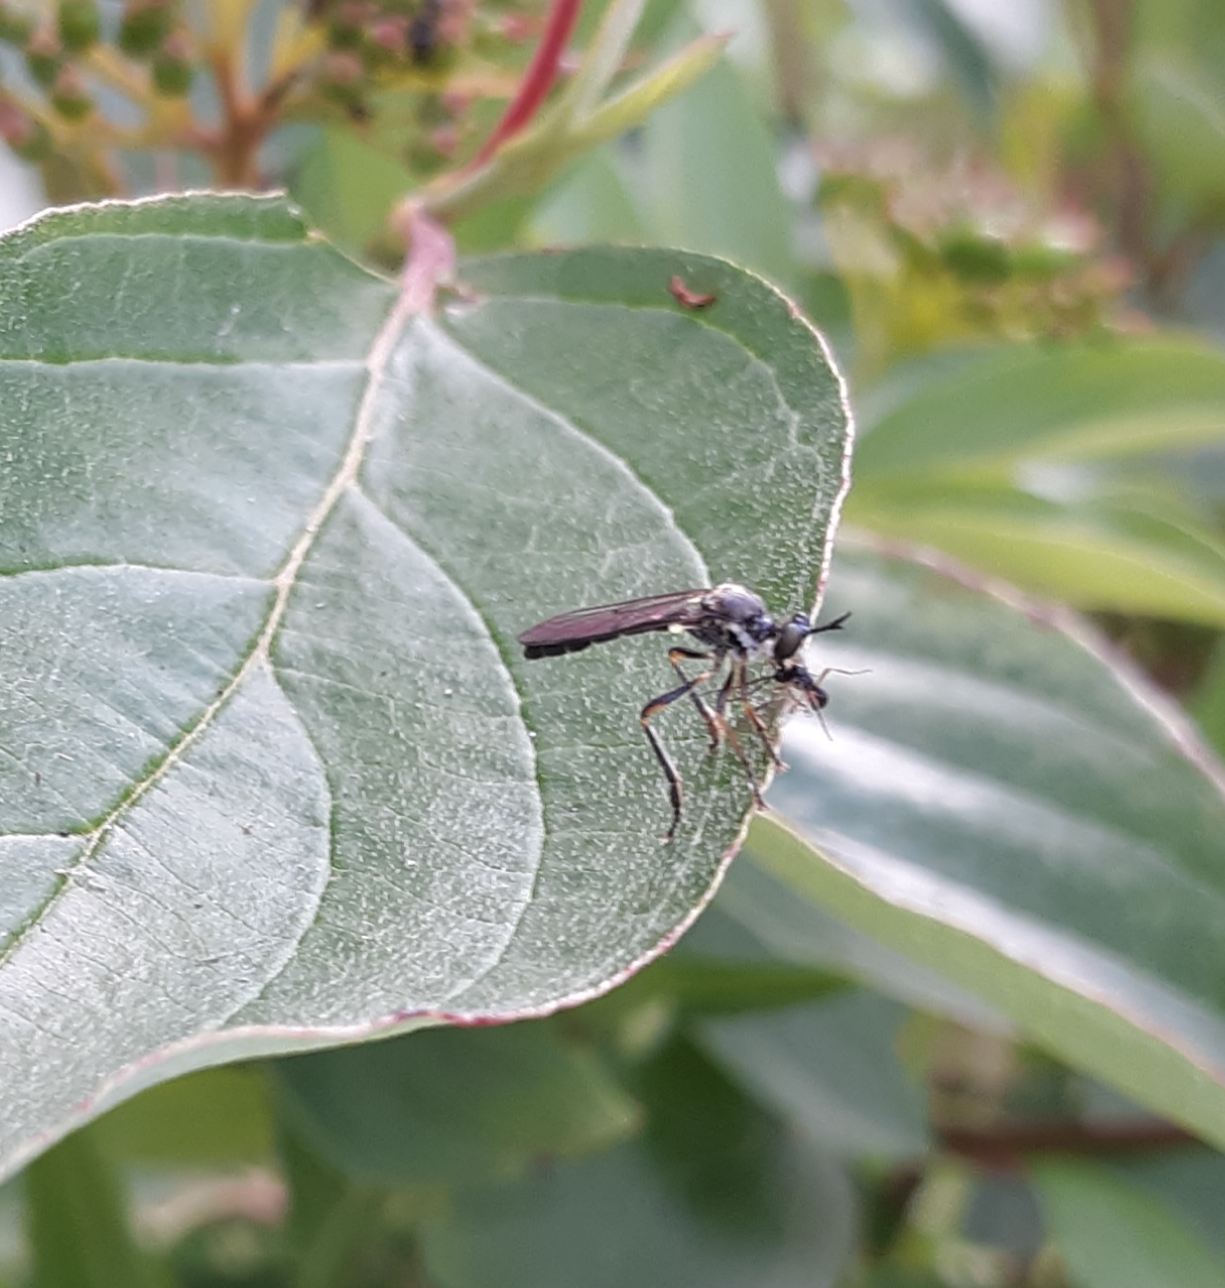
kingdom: Animalia
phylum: Arthropoda
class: Insecta
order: Diptera
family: Asilidae
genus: Dioctria
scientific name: Dioctria hyalipennis
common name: Stripe-legged robberfly
